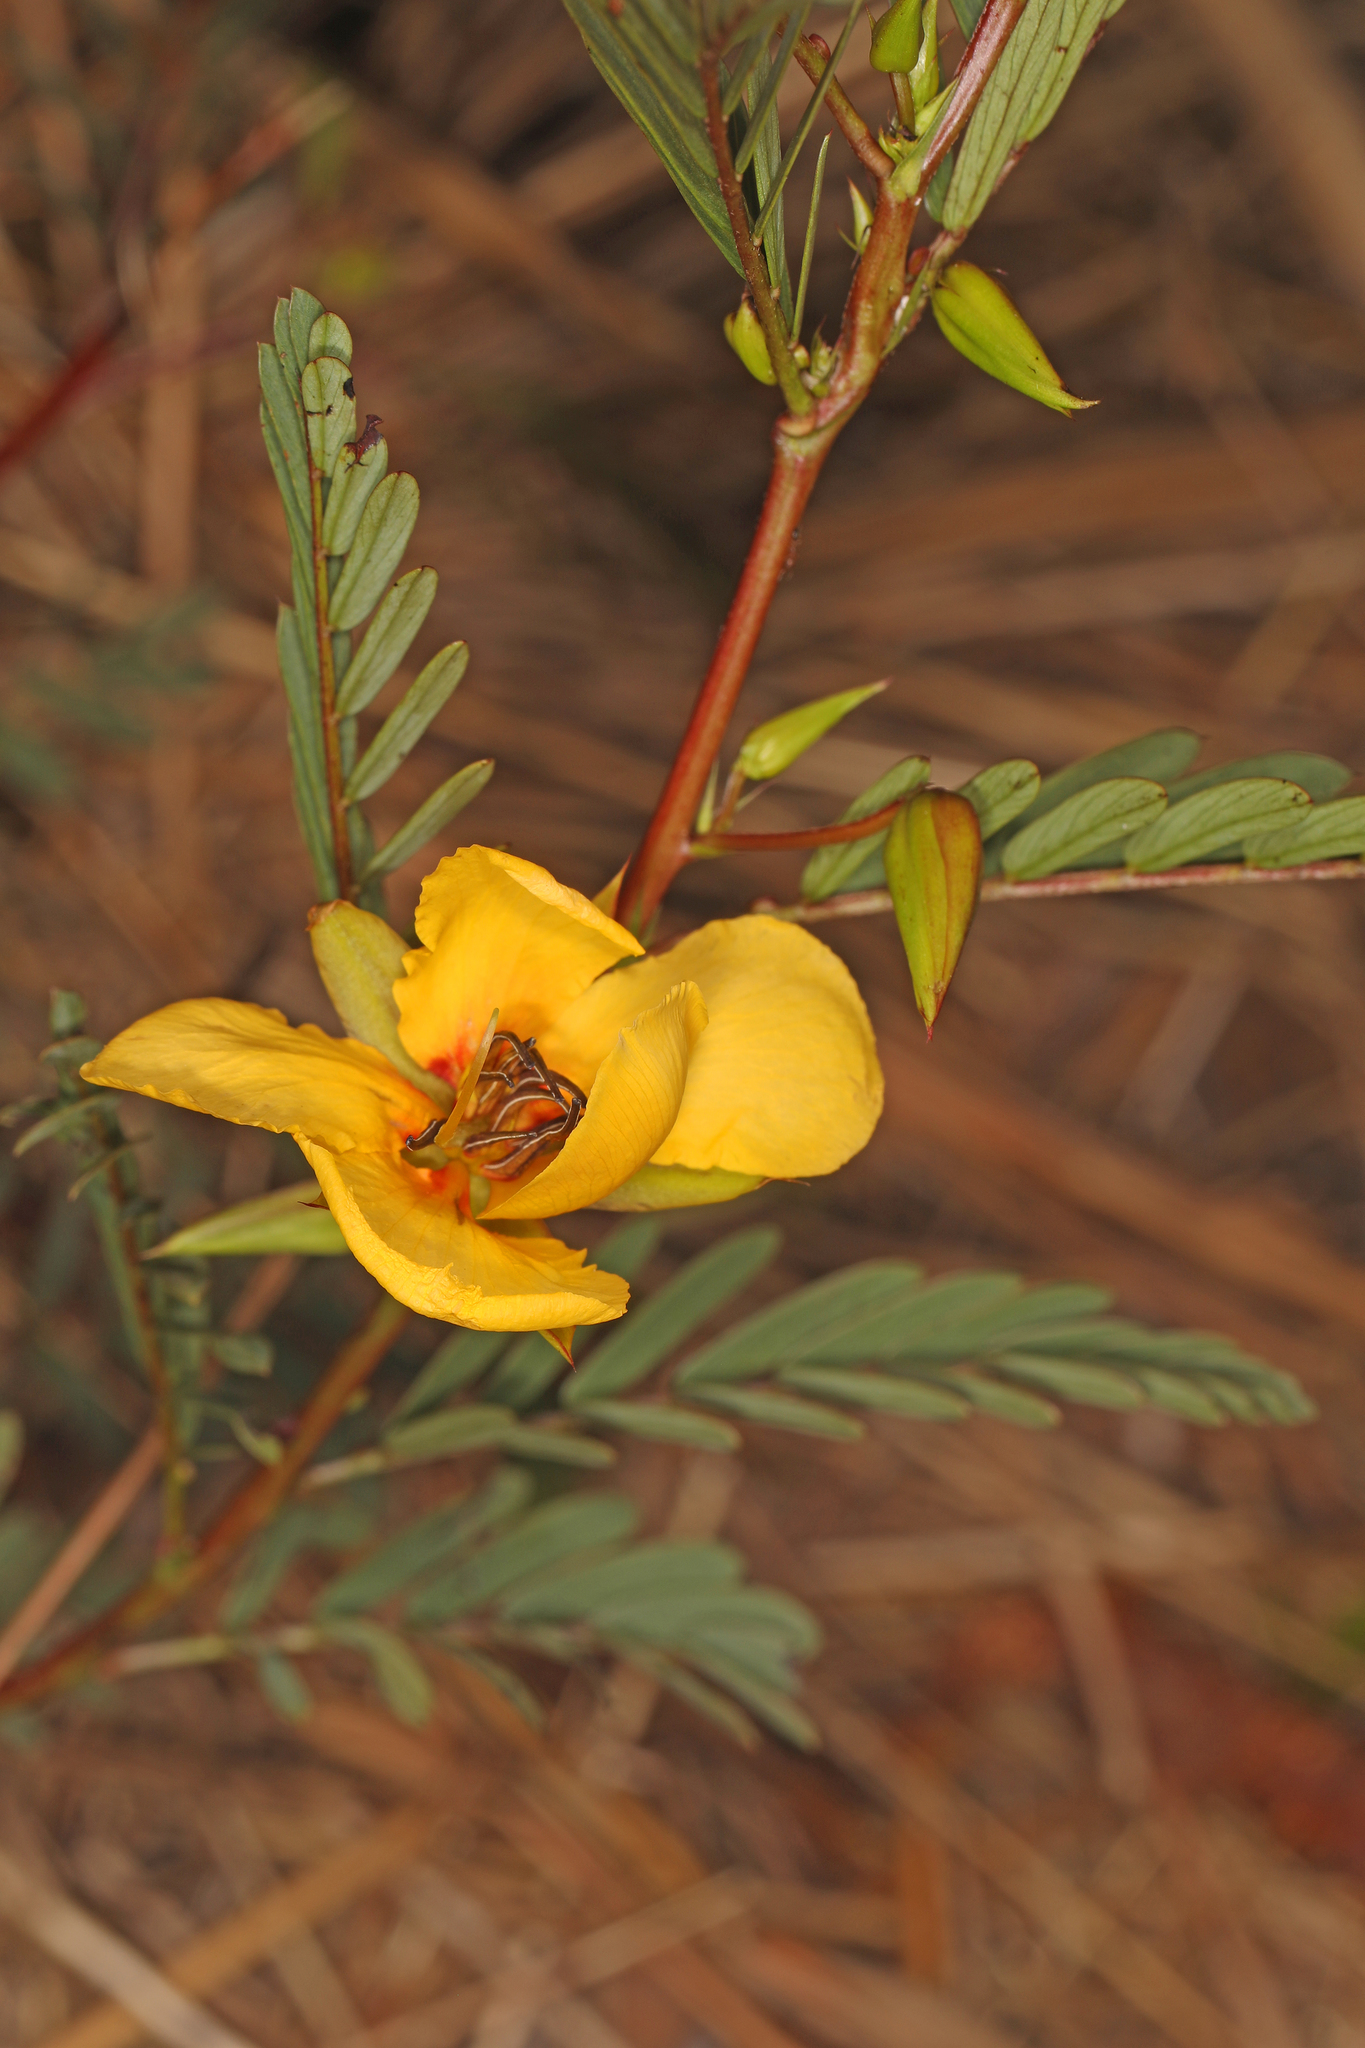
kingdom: Plantae
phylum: Tracheophyta
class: Magnoliopsida
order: Fabales
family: Fabaceae
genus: Chamaecrista
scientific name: Chamaecrista deeringiana
